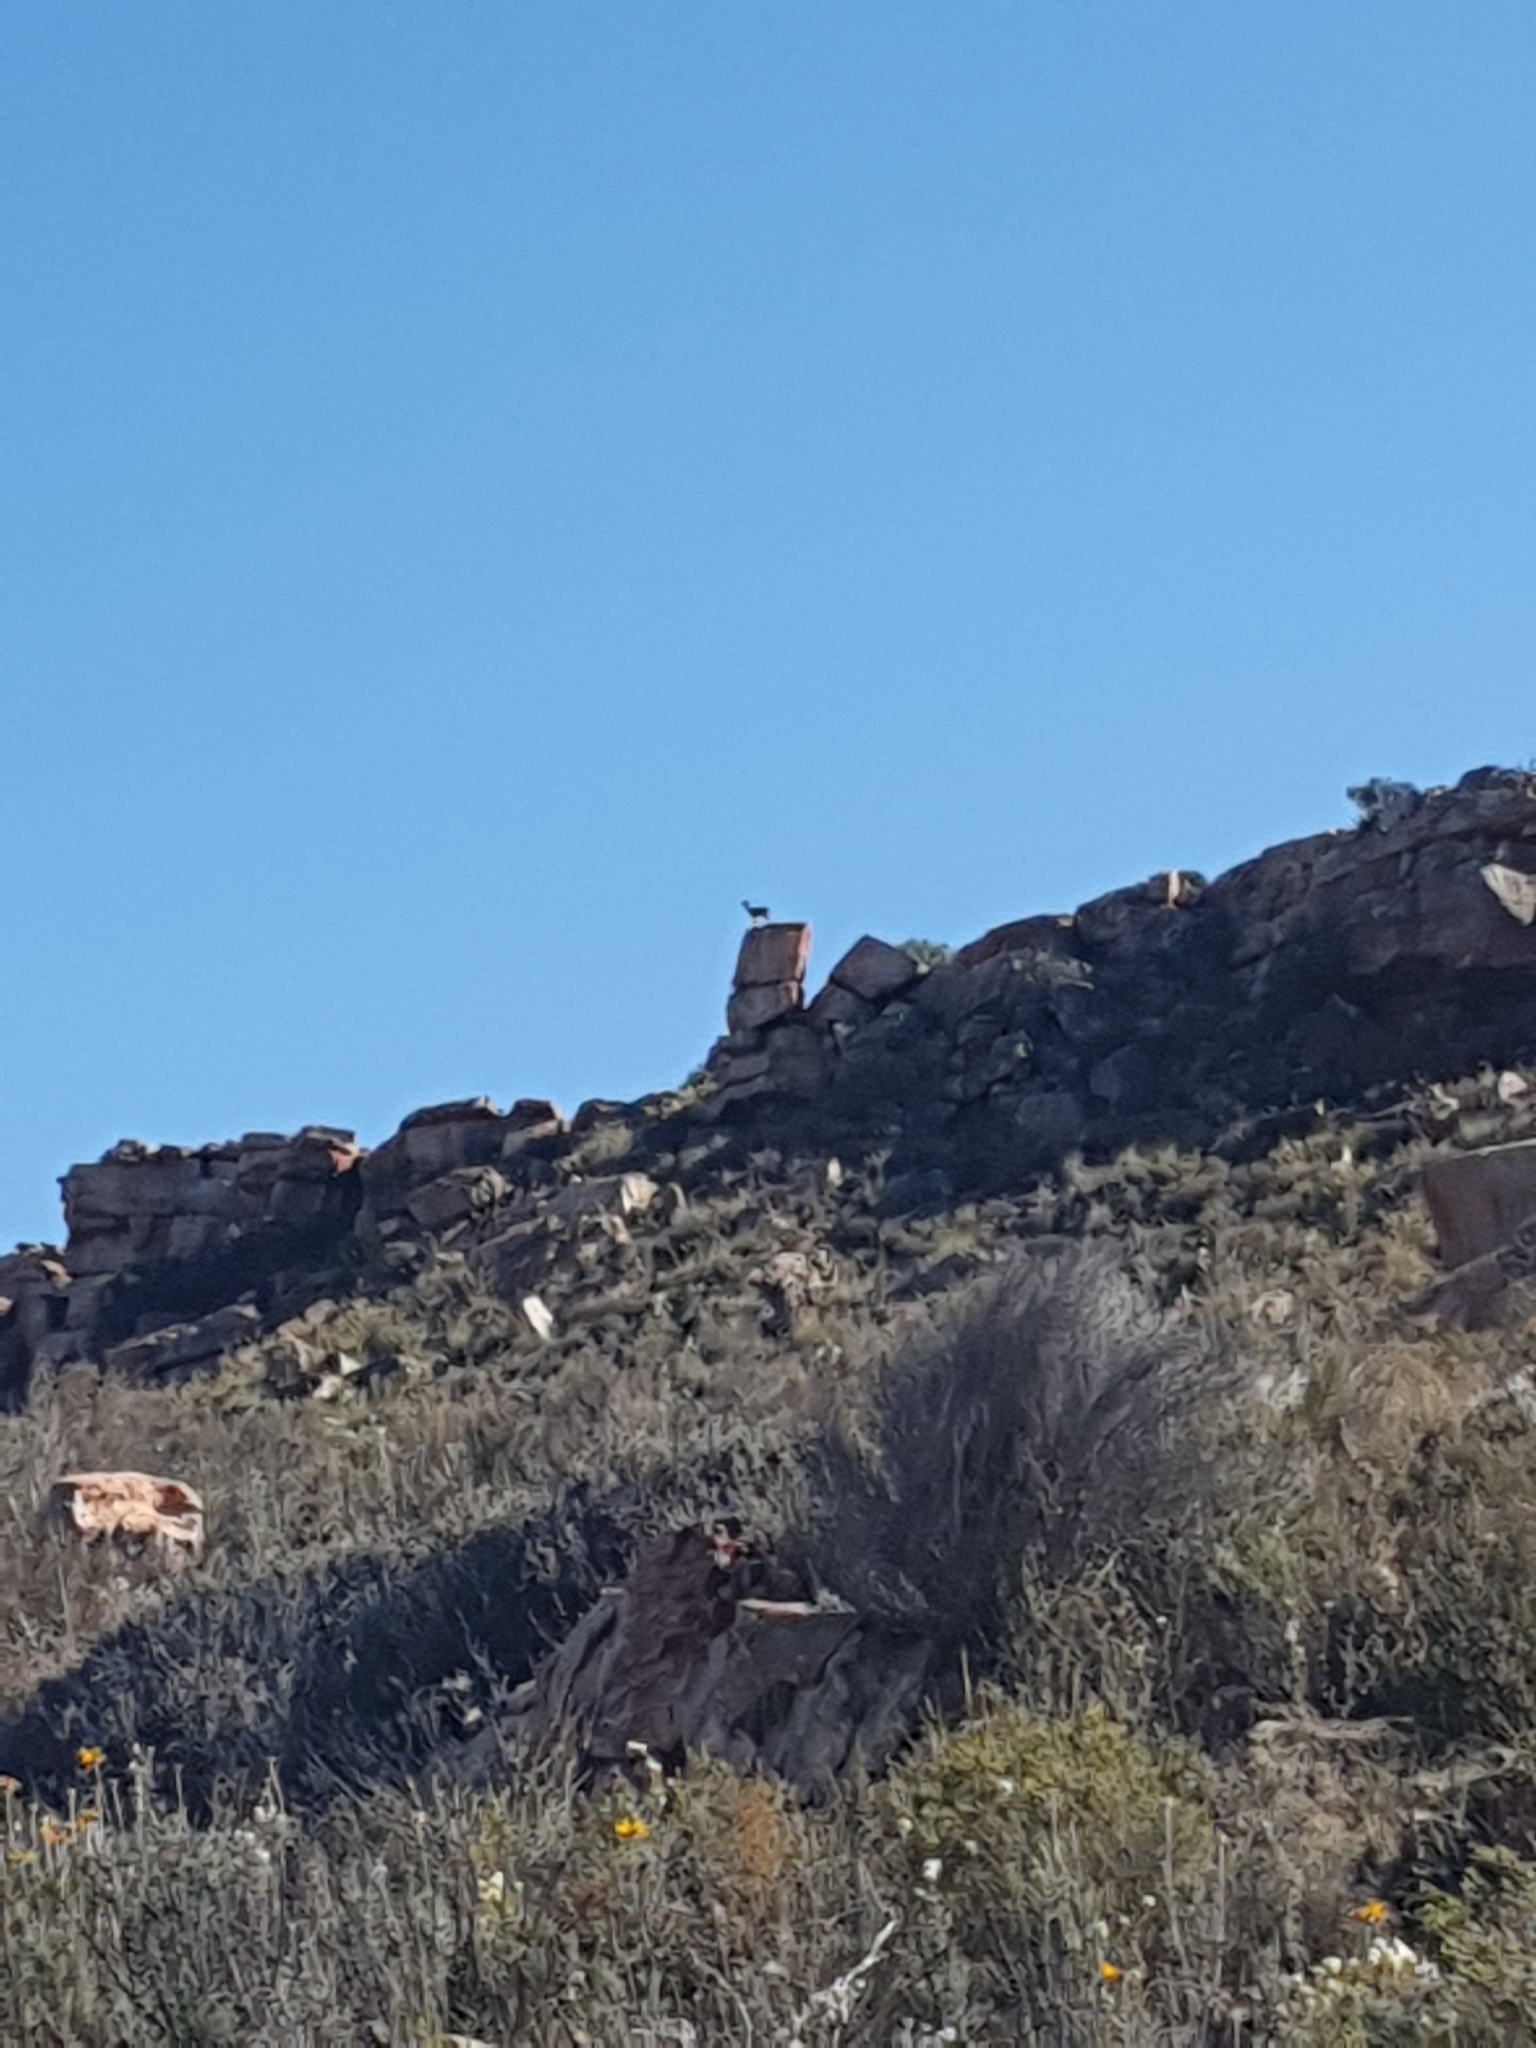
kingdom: Animalia
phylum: Chordata
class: Mammalia
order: Artiodactyla
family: Bovidae
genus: Oreotragus
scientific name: Oreotragus oreotragus
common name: Klipspringer
